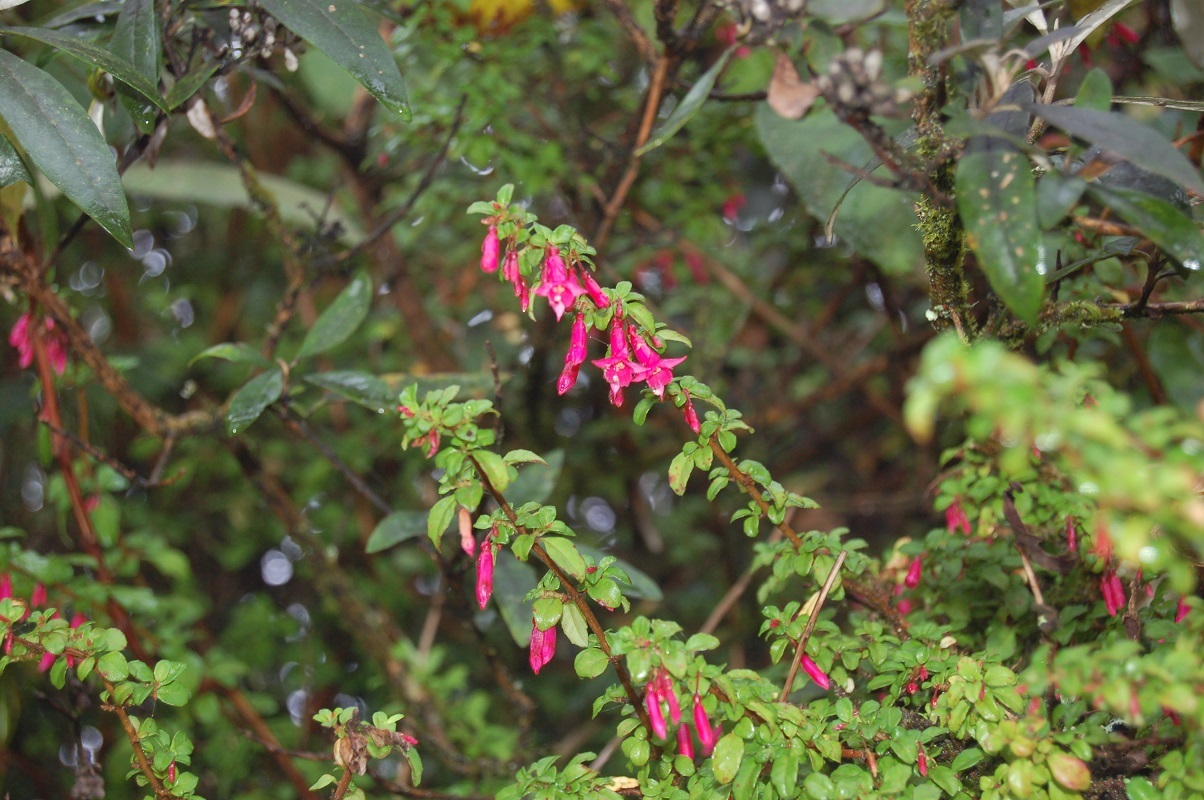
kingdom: Plantae
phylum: Tracheophyta
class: Magnoliopsida
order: Myrtales
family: Onagraceae
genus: Fuchsia
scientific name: Fuchsia thymifolia
